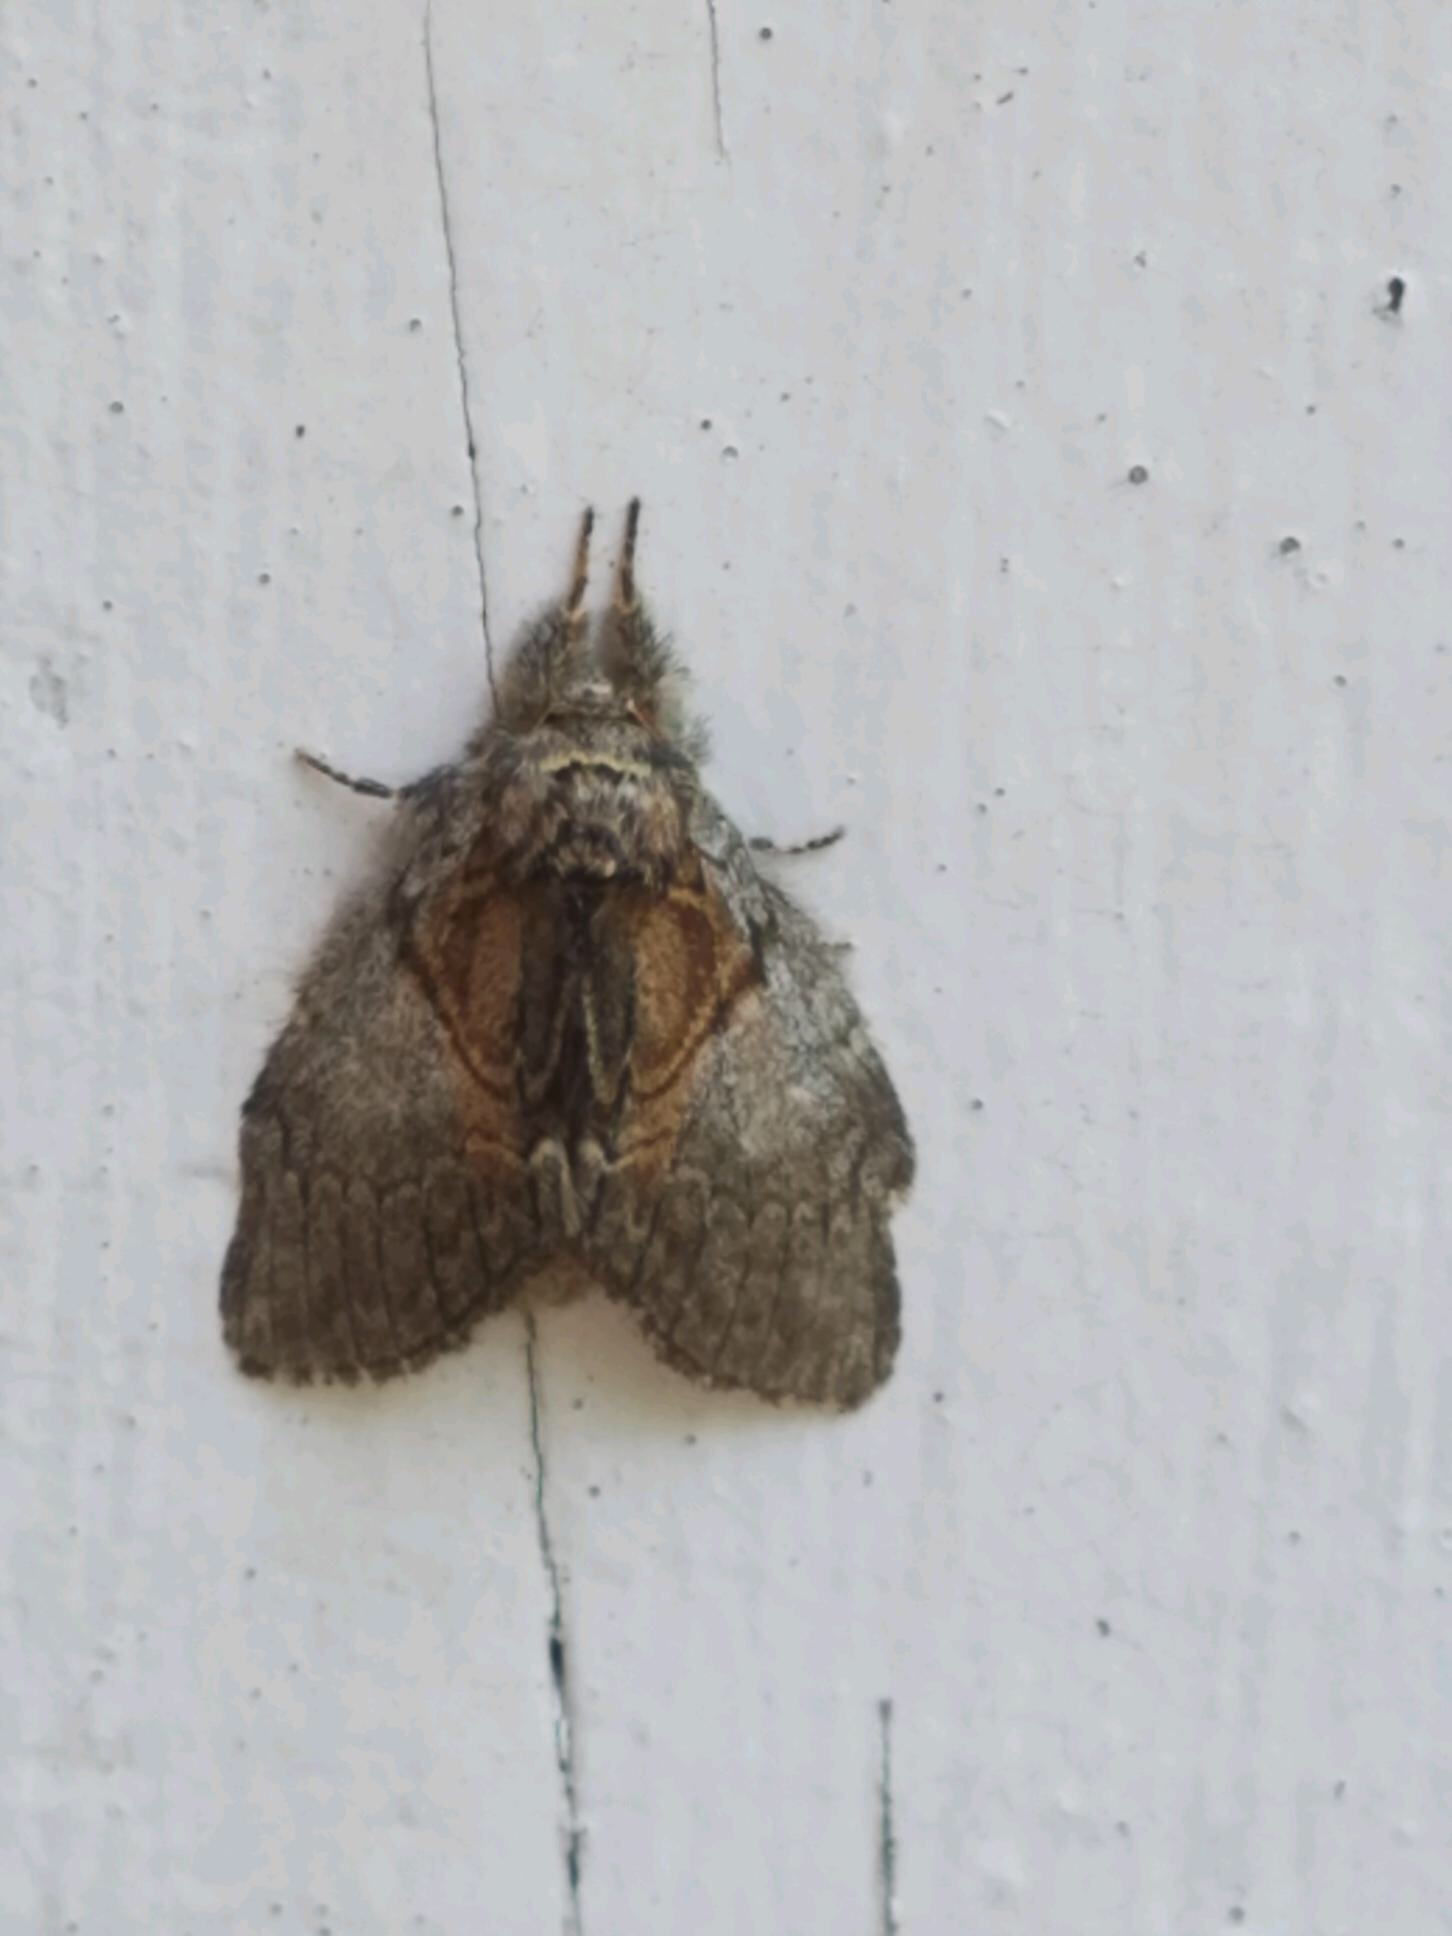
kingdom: Animalia
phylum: Arthropoda
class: Insecta
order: Lepidoptera
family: Notodontidae
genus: Peridea
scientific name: Peridea basitriens
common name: Oval-based prominent
